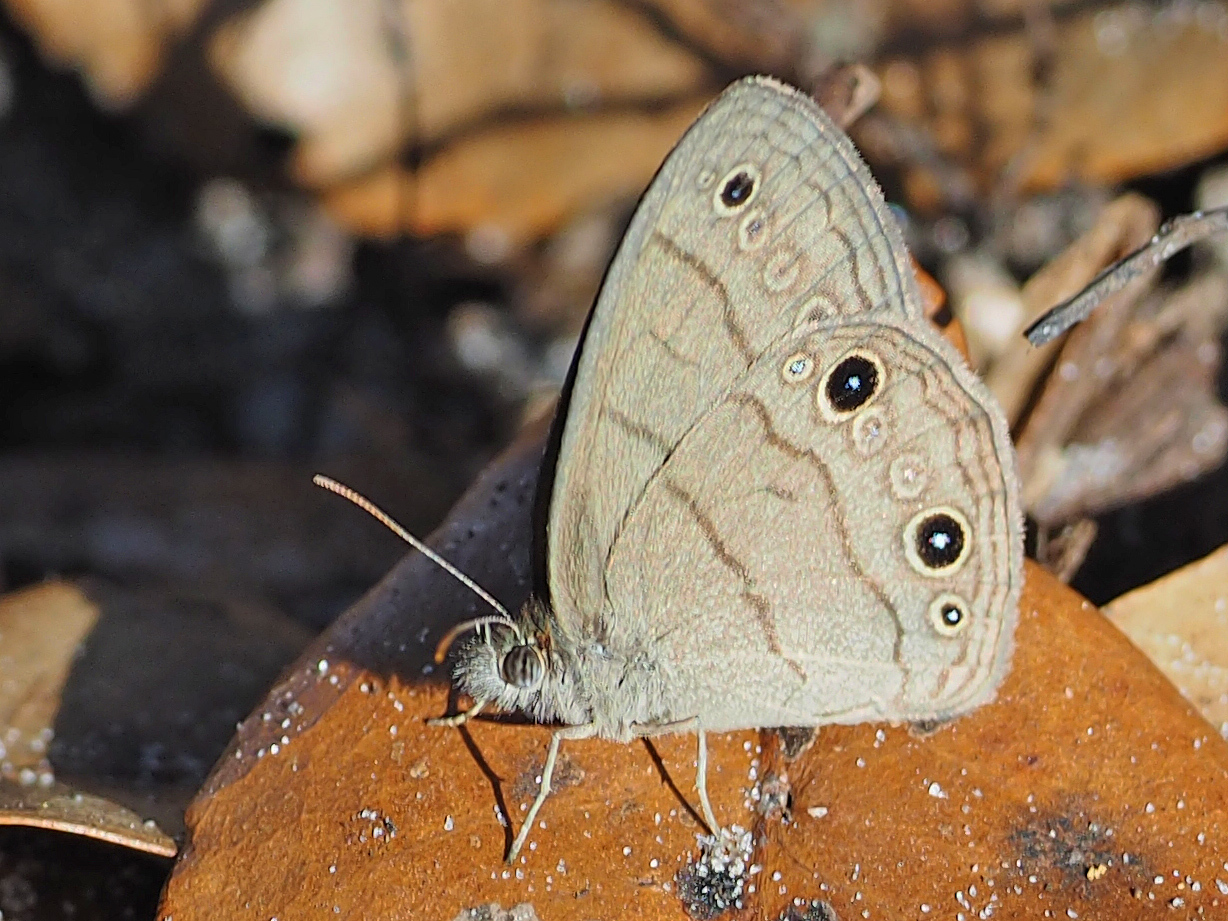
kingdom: Animalia
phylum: Arthropoda
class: Insecta
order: Lepidoptera
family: Nymphalidae
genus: Hermeuptychia
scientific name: Hermeuptychia hermes
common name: Hermes satyr
